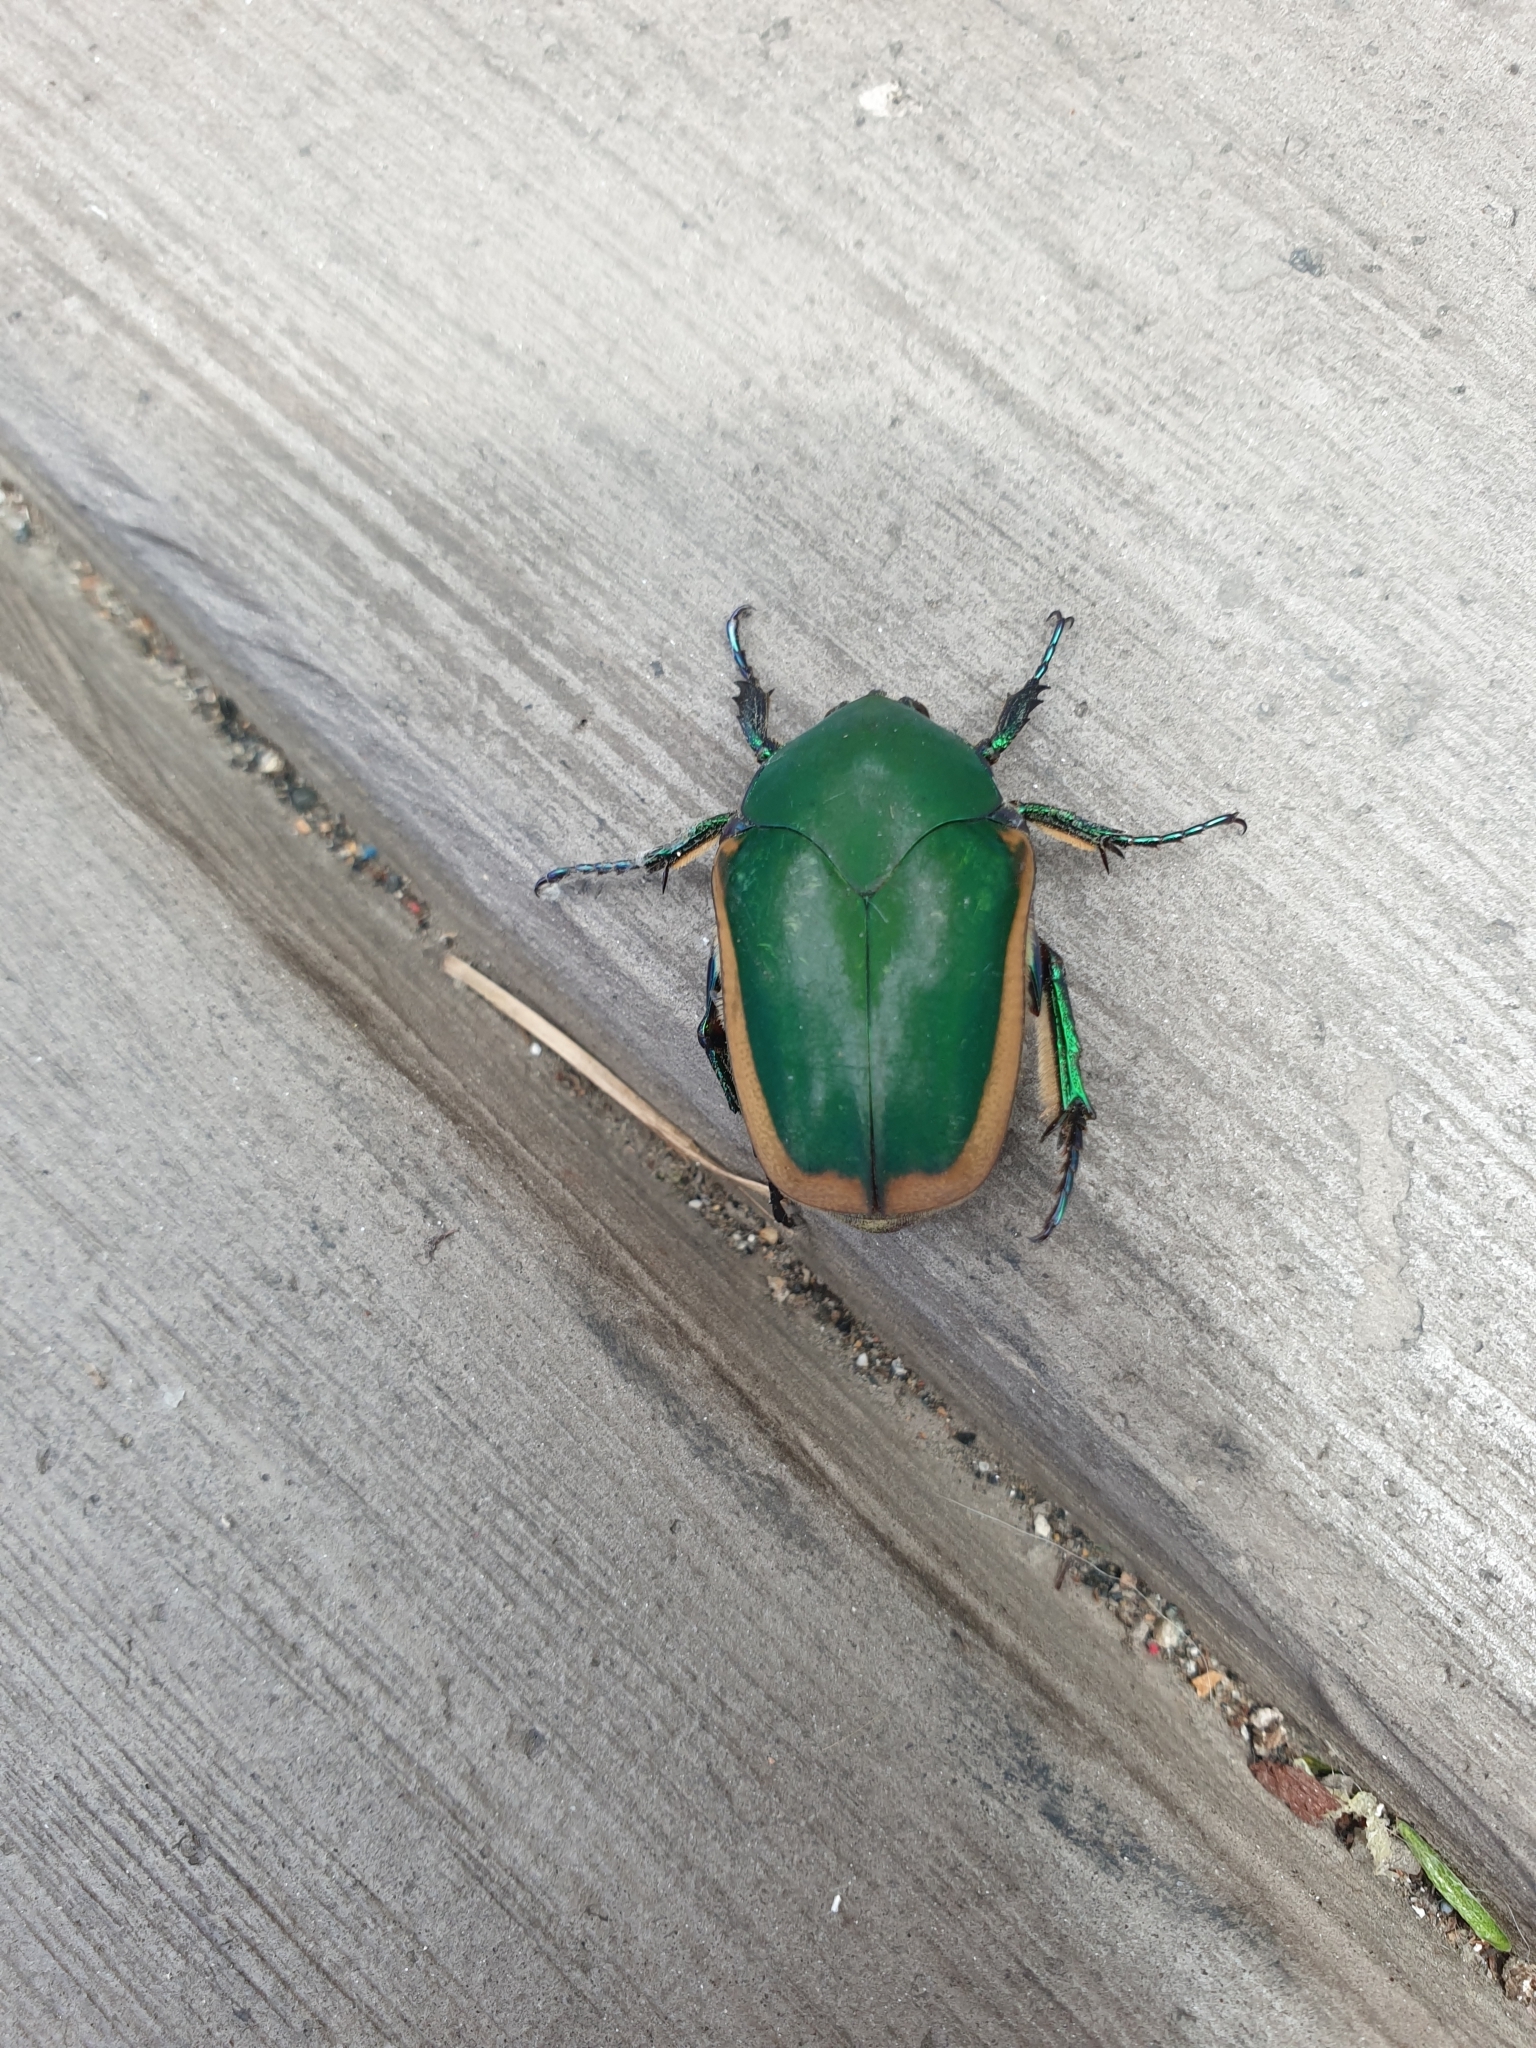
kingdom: Animalia
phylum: Arthropoda
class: Insecta
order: Coleoptera
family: Scarabaeidae
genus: Cotinis
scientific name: Cotinis mutabilis
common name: Figeater beetle
